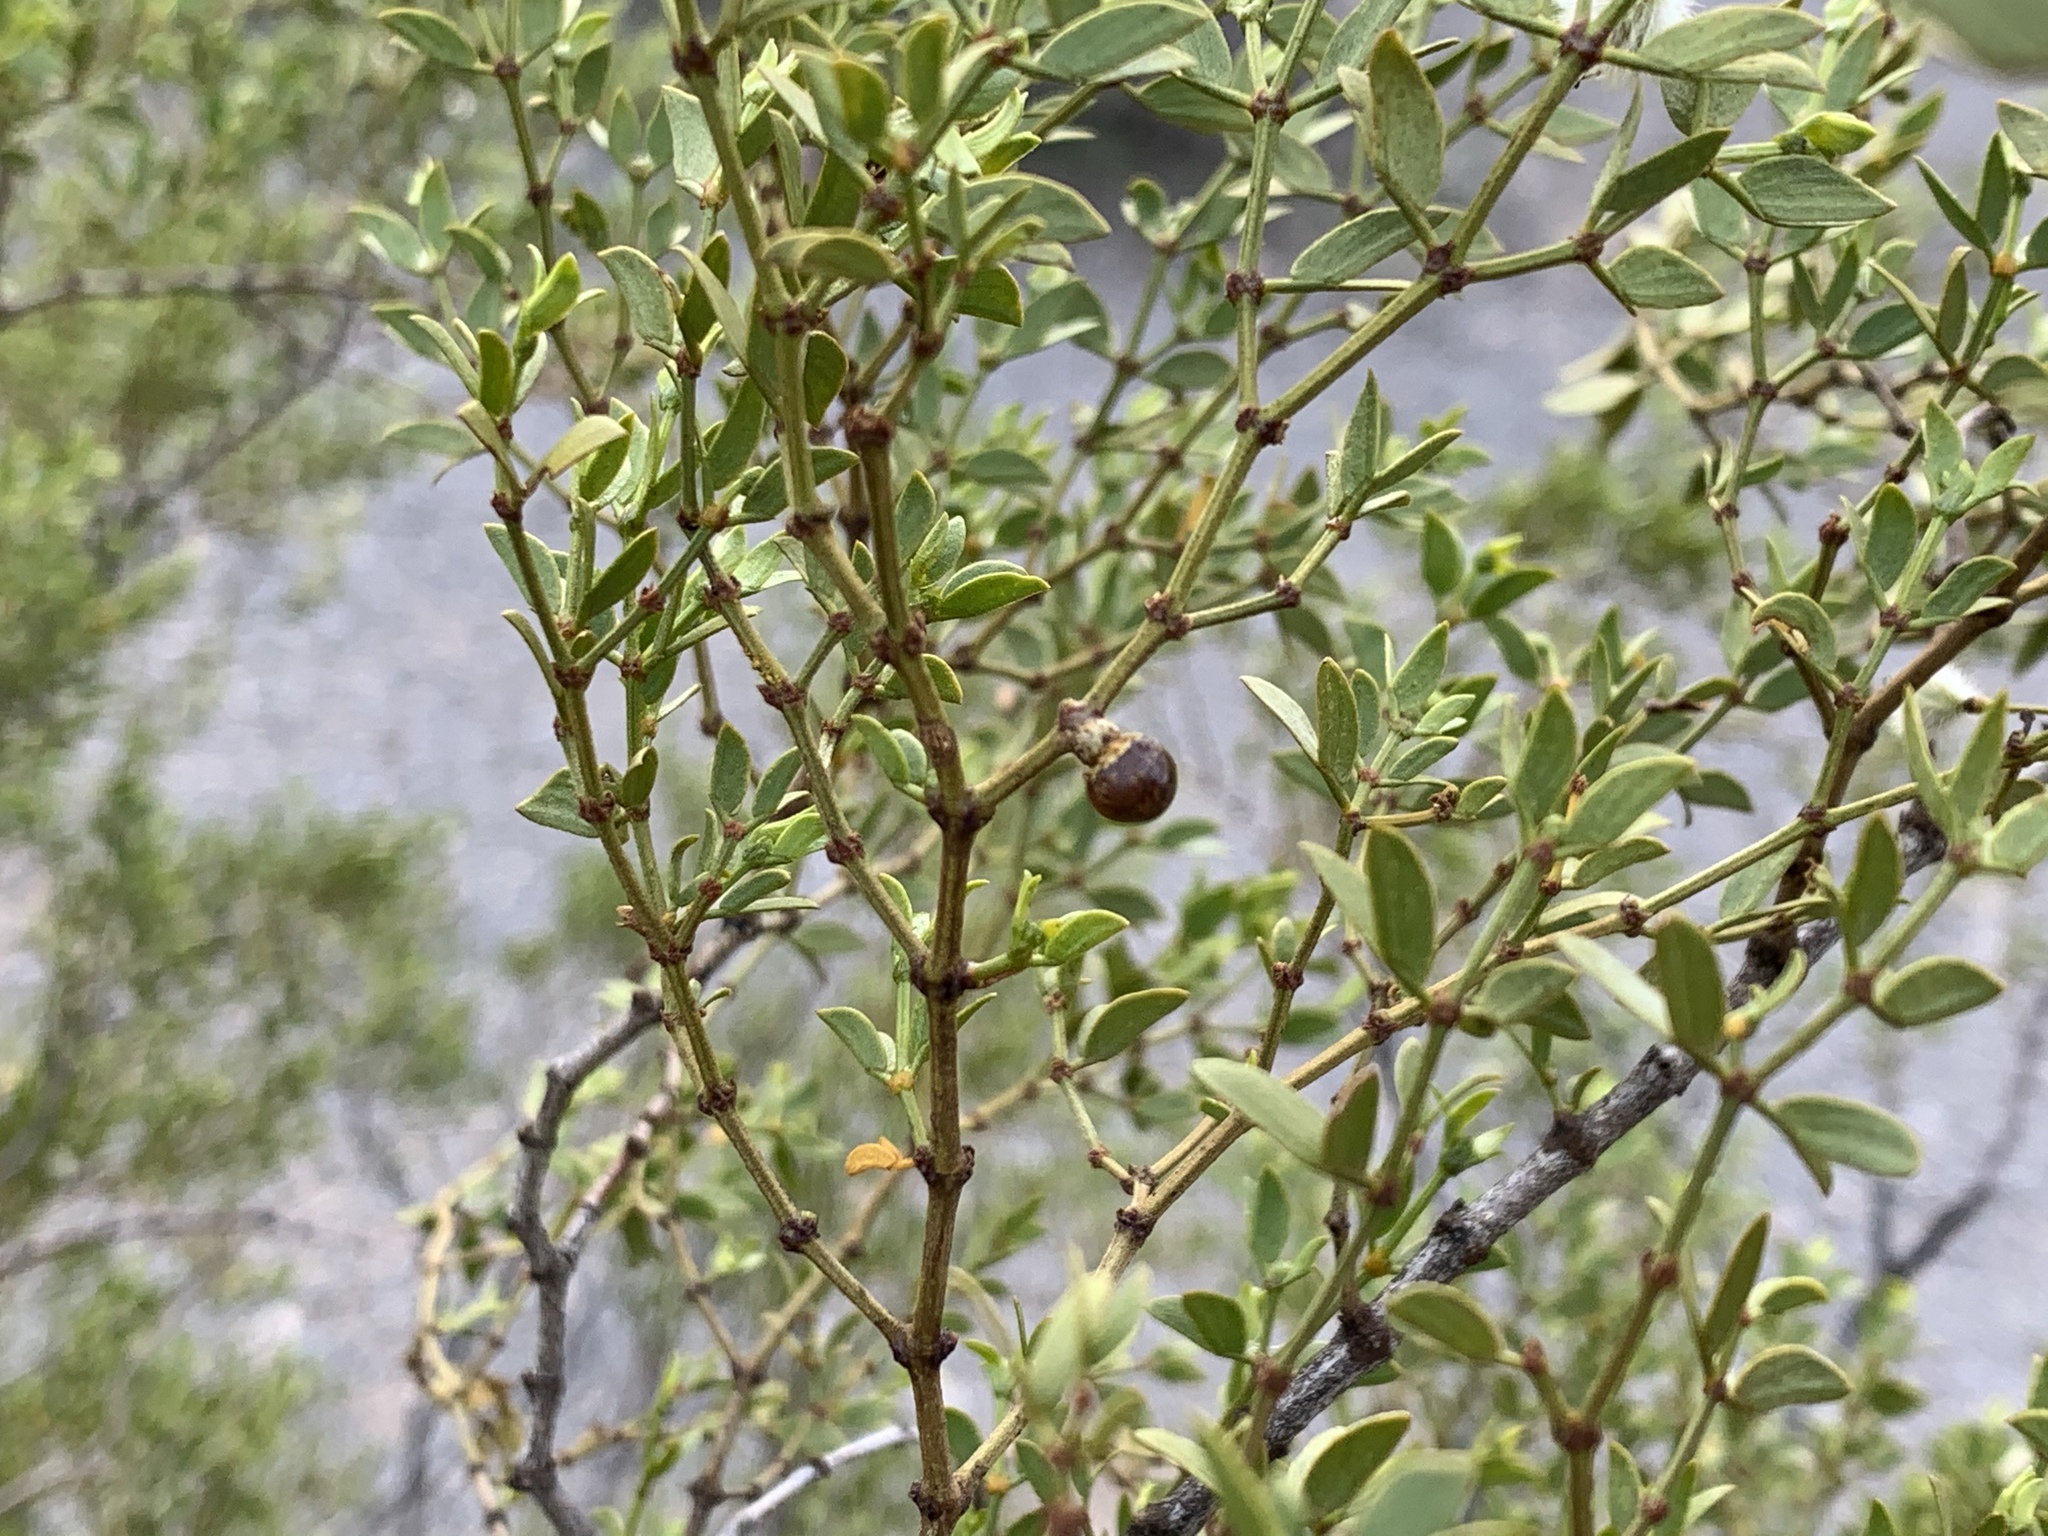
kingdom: Animalia
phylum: Arthropoda
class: Insecta
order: Diptera
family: Cecidomyiidae
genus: Asphondylia
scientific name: Asphondylia resinosa
